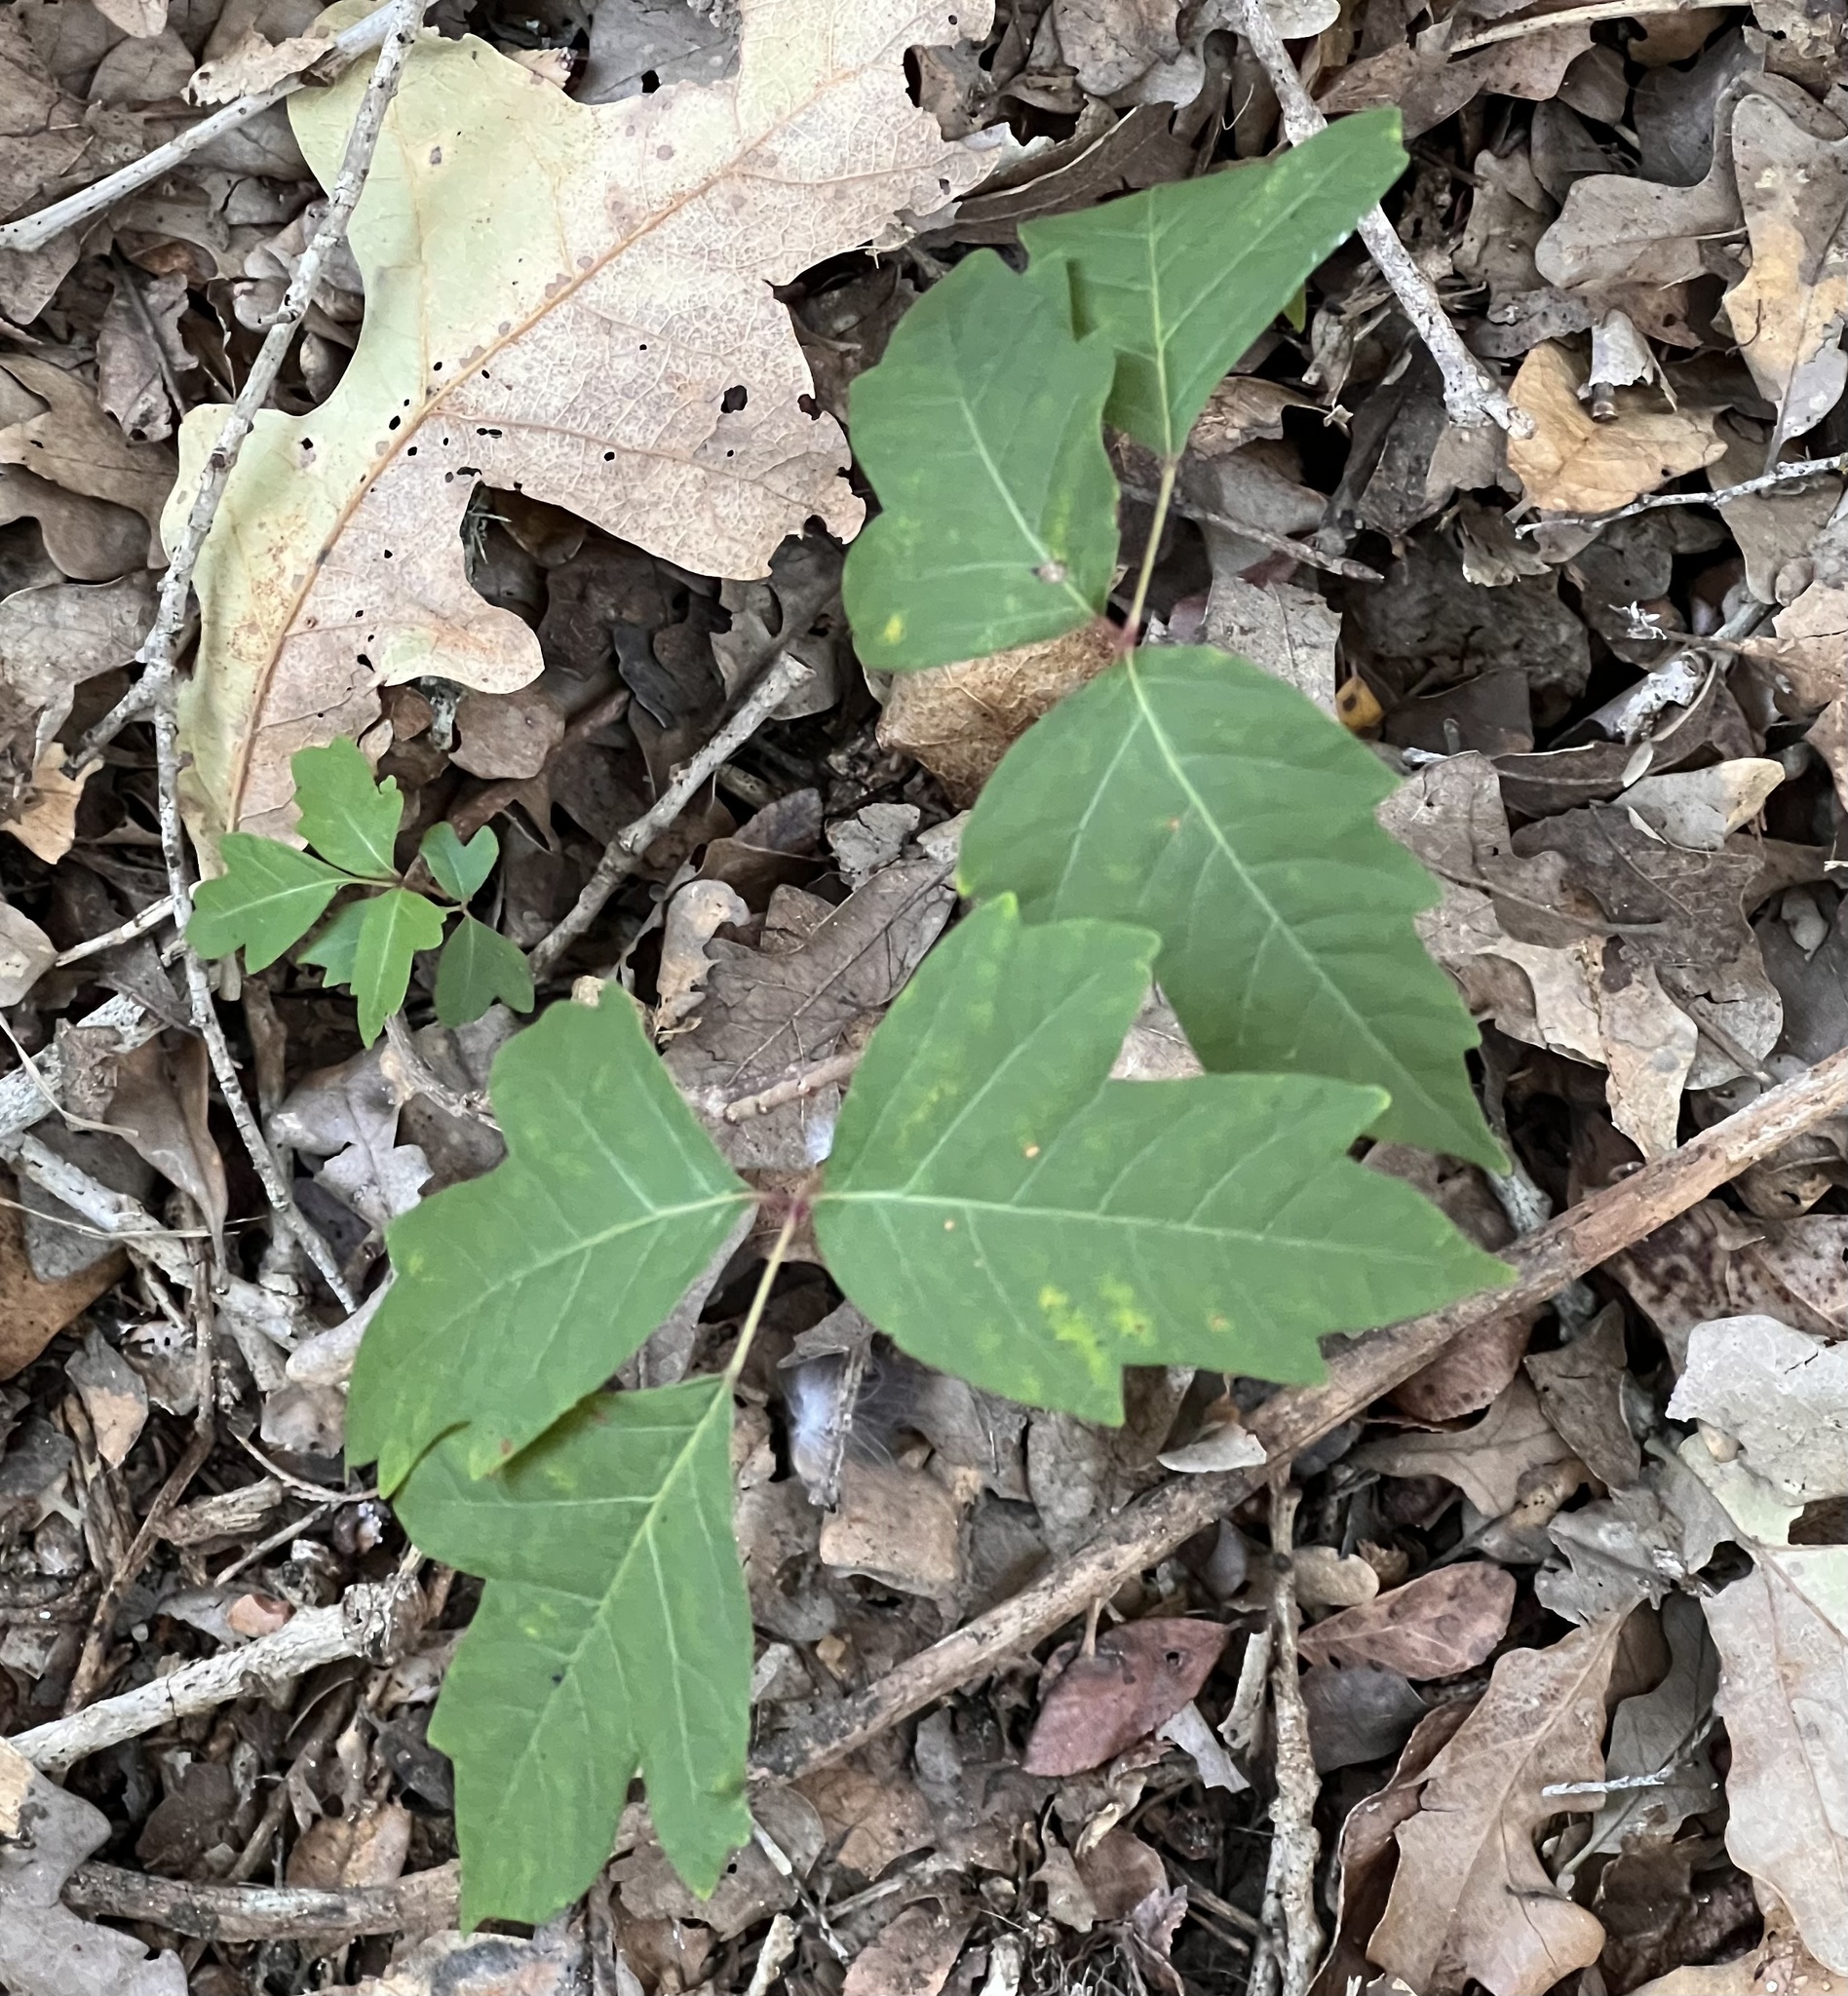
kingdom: Plantae
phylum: Tracheophyta
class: Magnoliopsida
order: Sapindales
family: Anacardiaceae
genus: Toxicodendron
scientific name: Toxicodendron radicans
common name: Poison ivy
